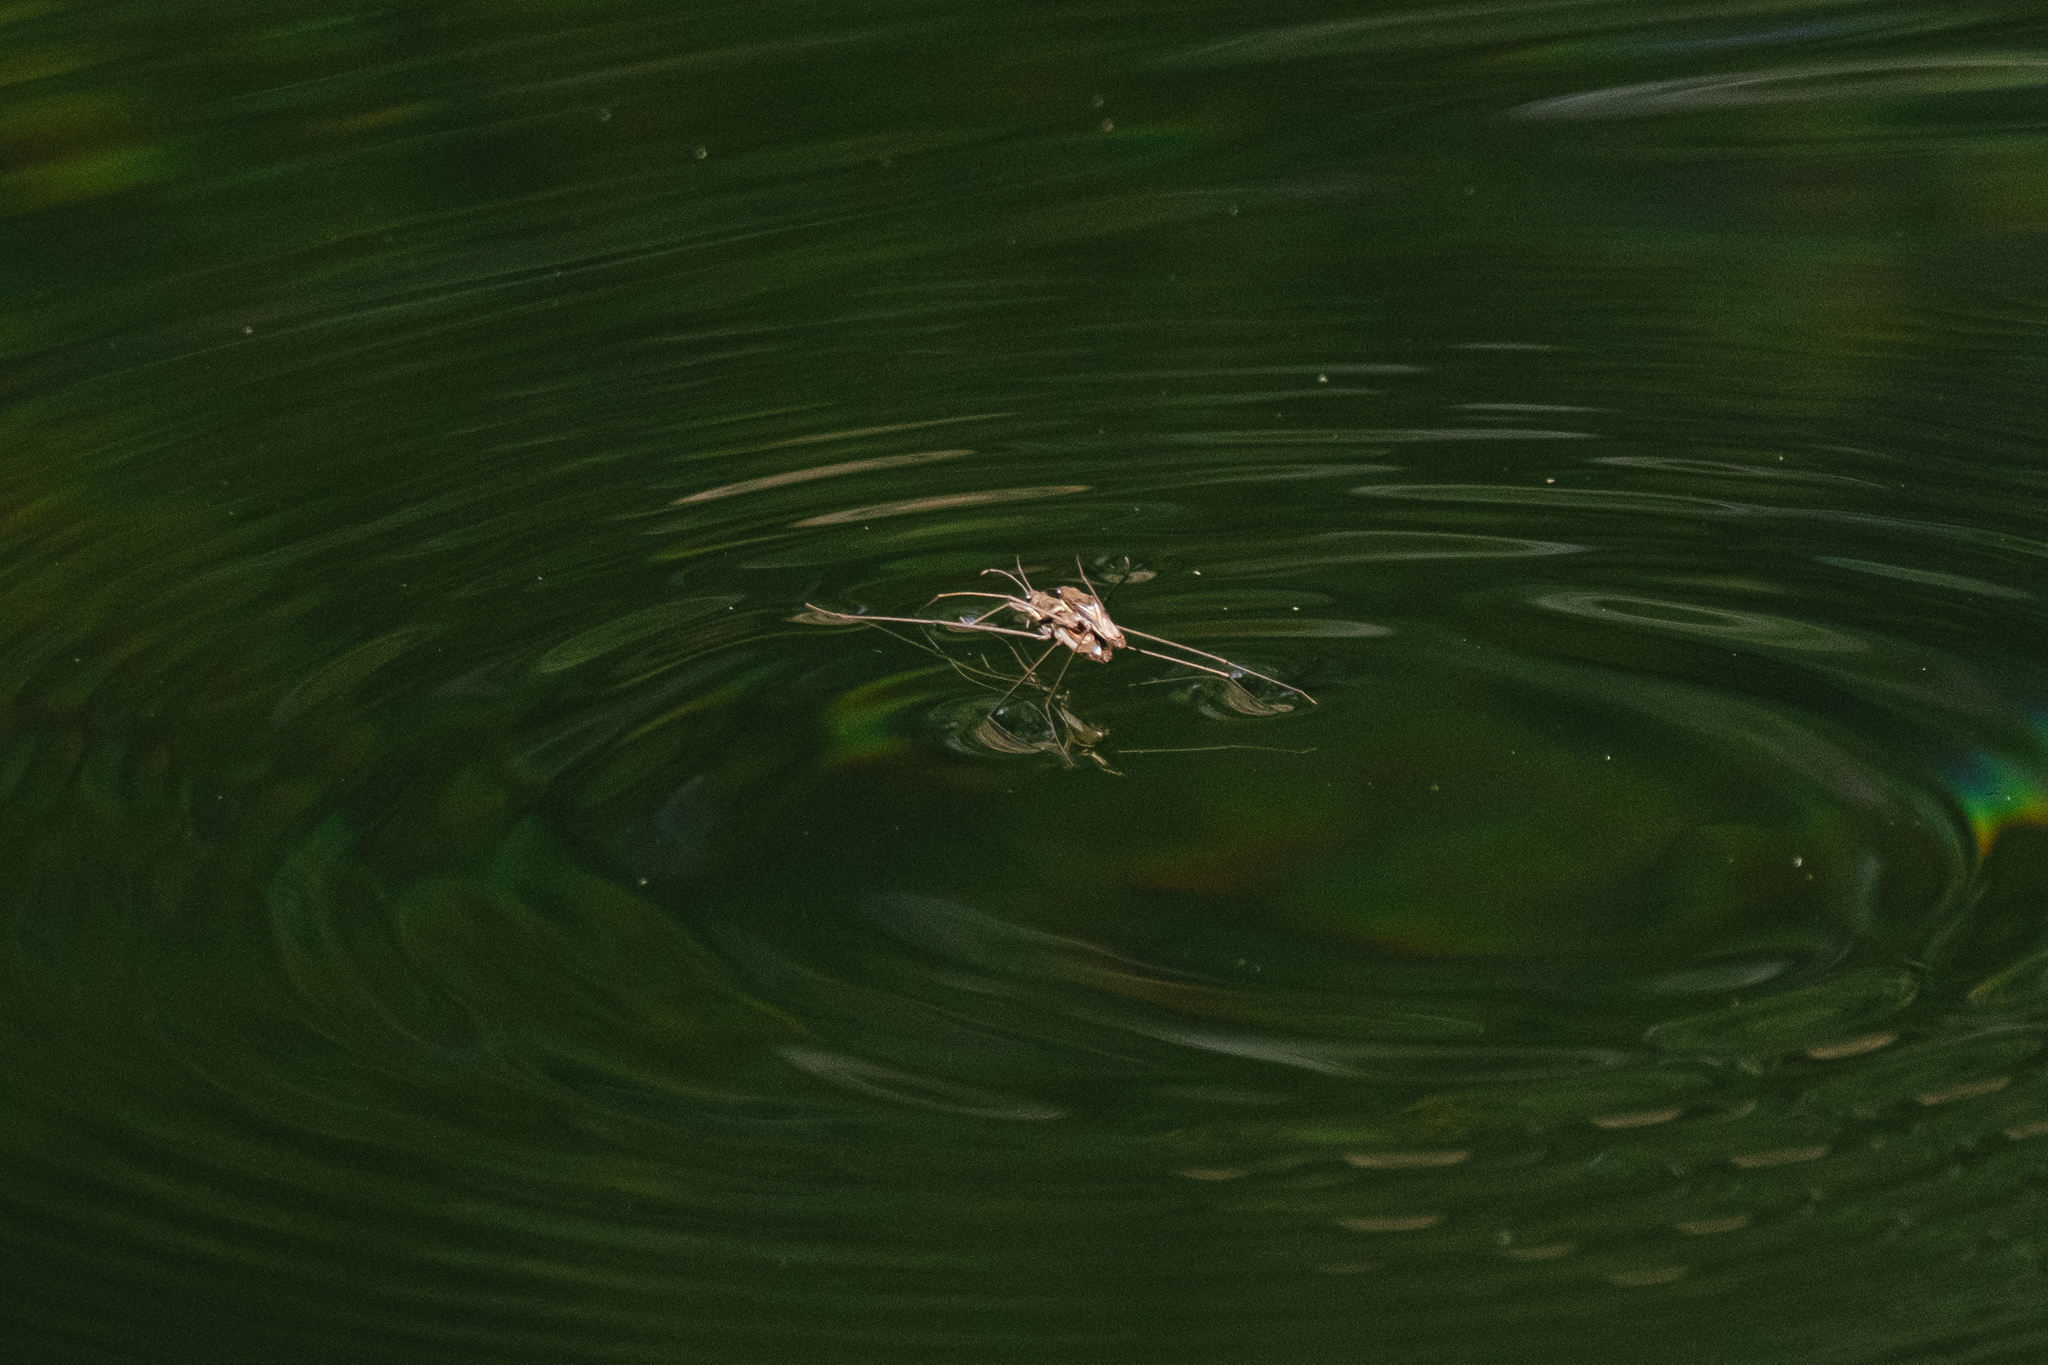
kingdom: Animalia
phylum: Arthropoda
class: Insecta
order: Hemiptera
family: Gerridae
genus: Aquarius
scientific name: Aquarius
